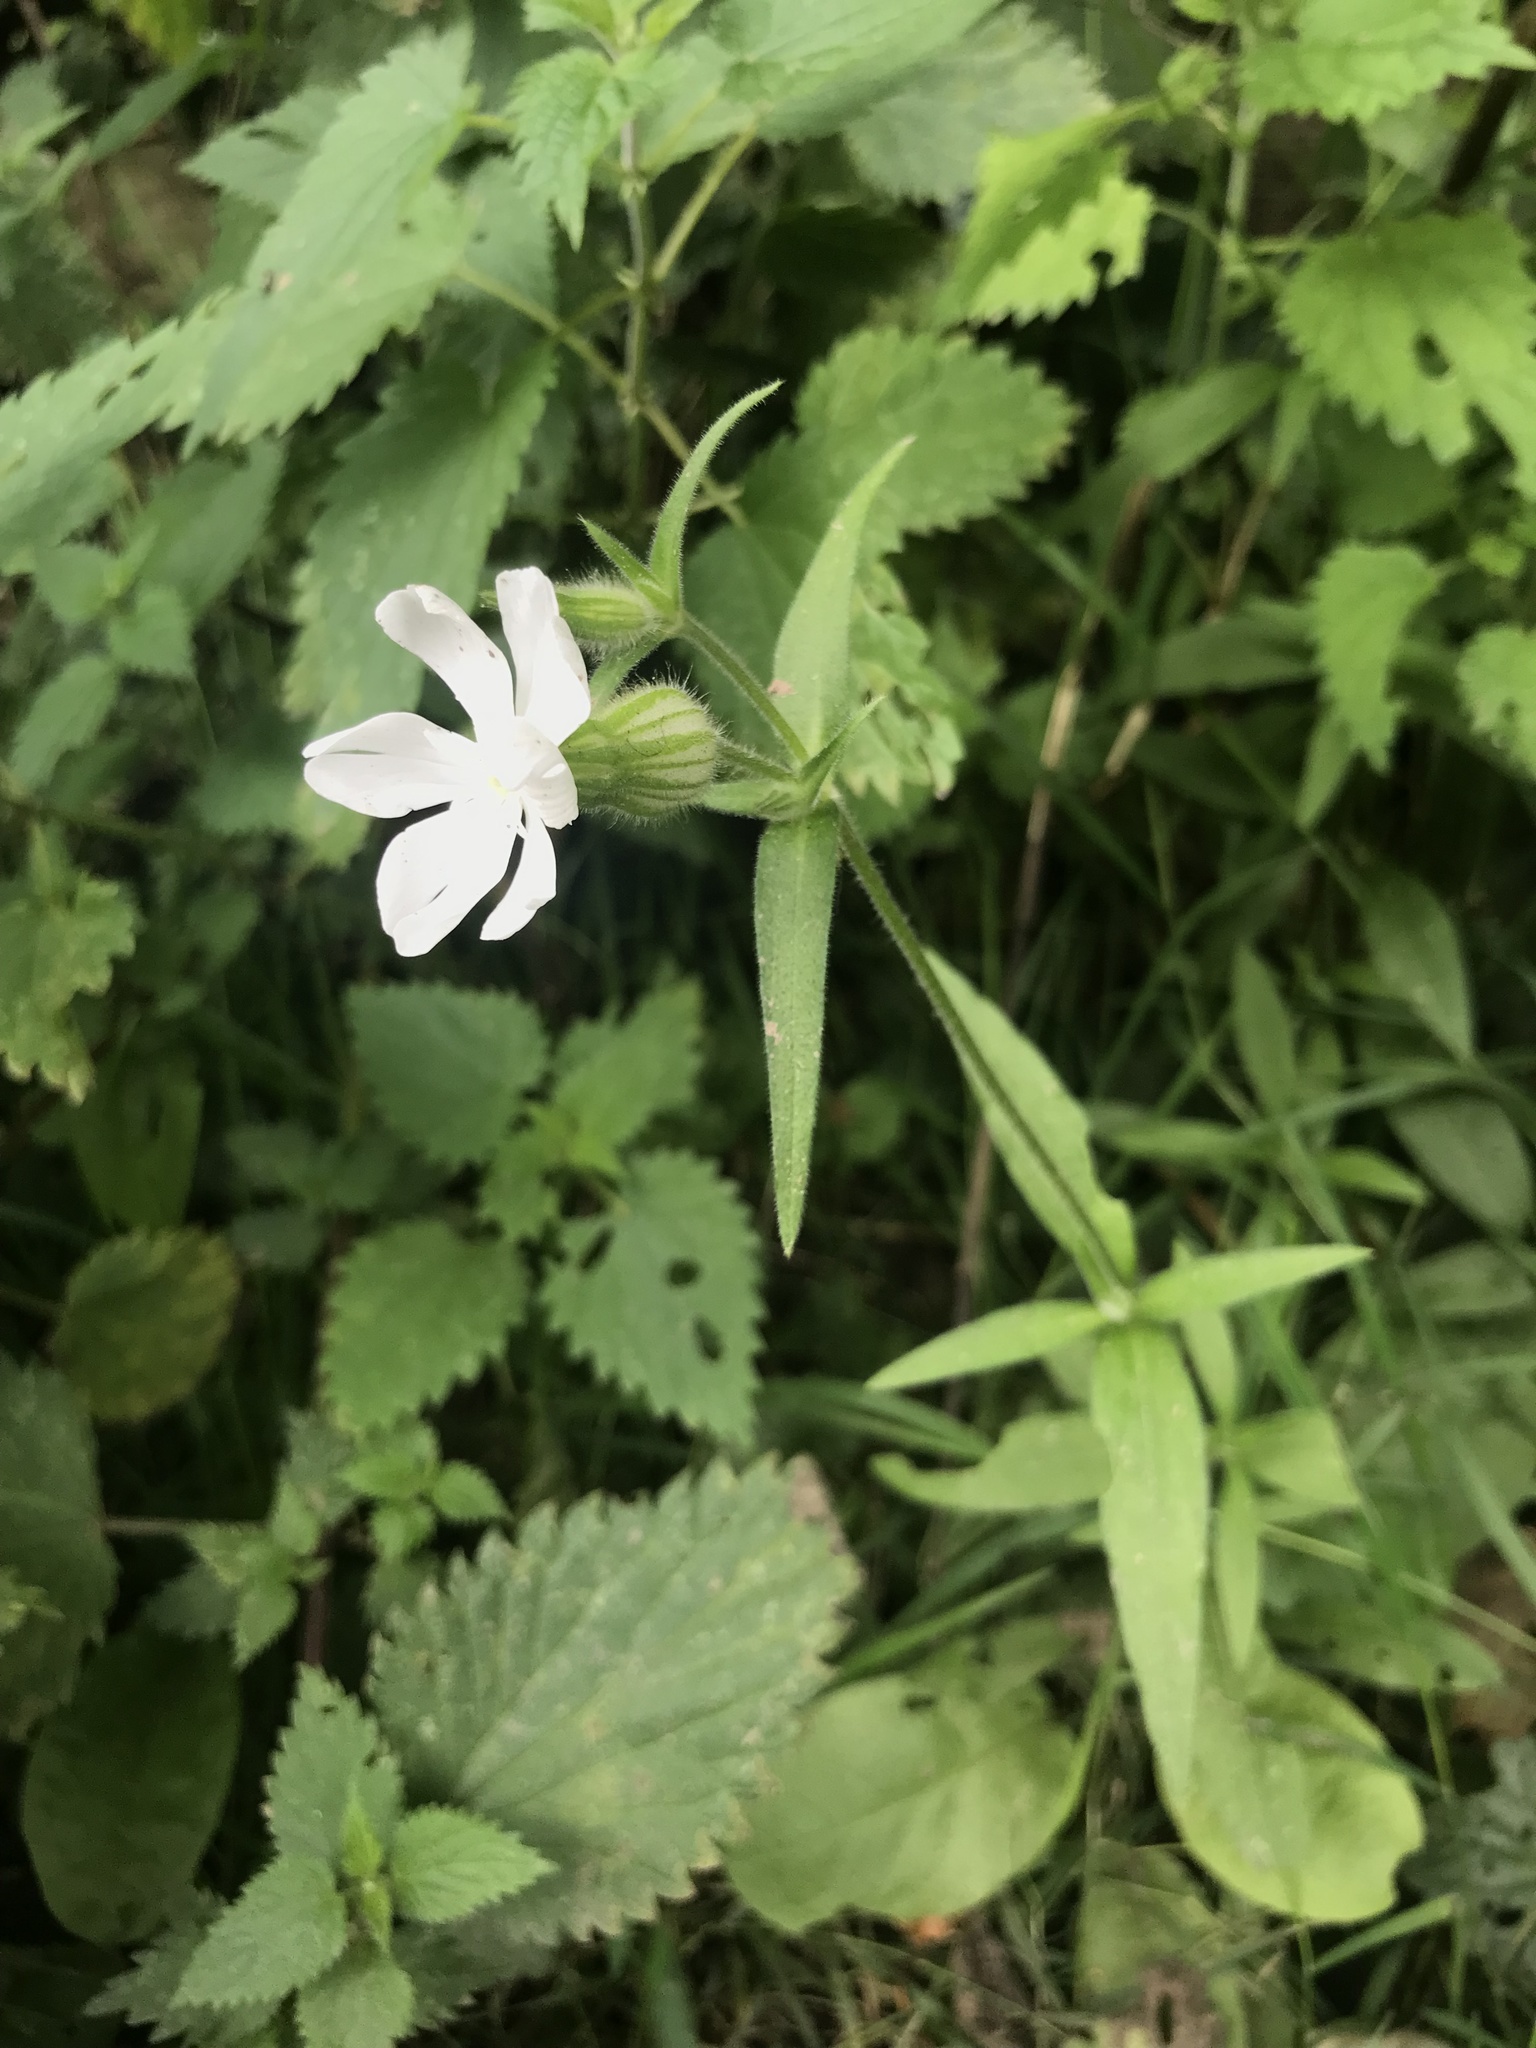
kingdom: Plantae
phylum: Tracheophyta
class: Magnoliopsida
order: Caryophyllales
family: Caryophyllaceae
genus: Silene
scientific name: Silene latifolia
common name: White campion
